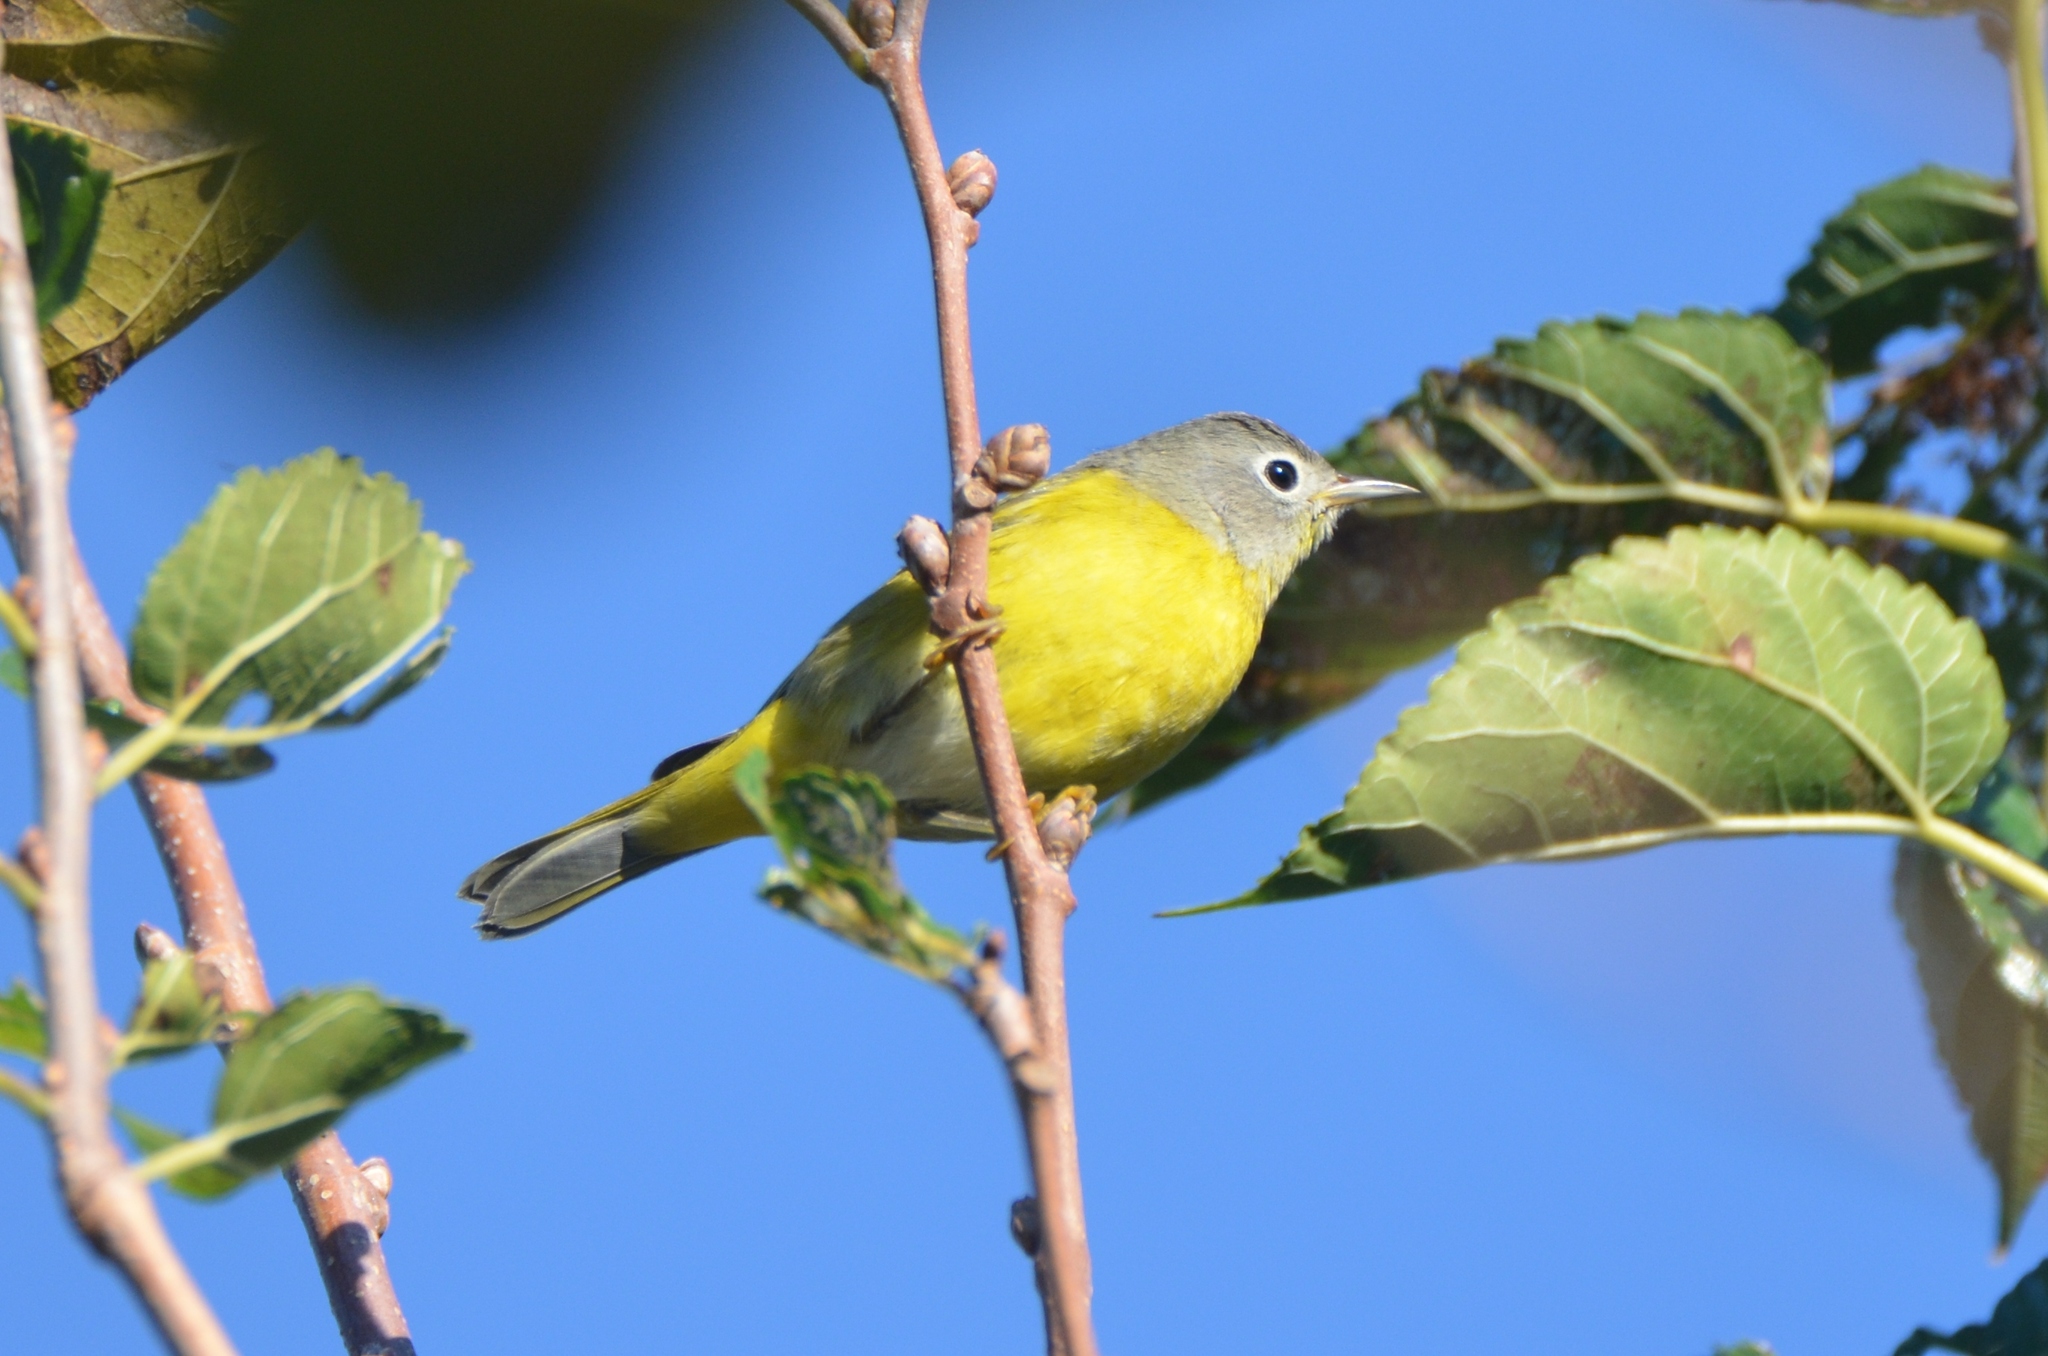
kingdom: Animalia
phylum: Chordata
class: Aves
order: Passeriformes
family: Parulidae
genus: Leiothlypis
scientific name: Leiothlypis ruficapilla
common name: Nashville warbler
